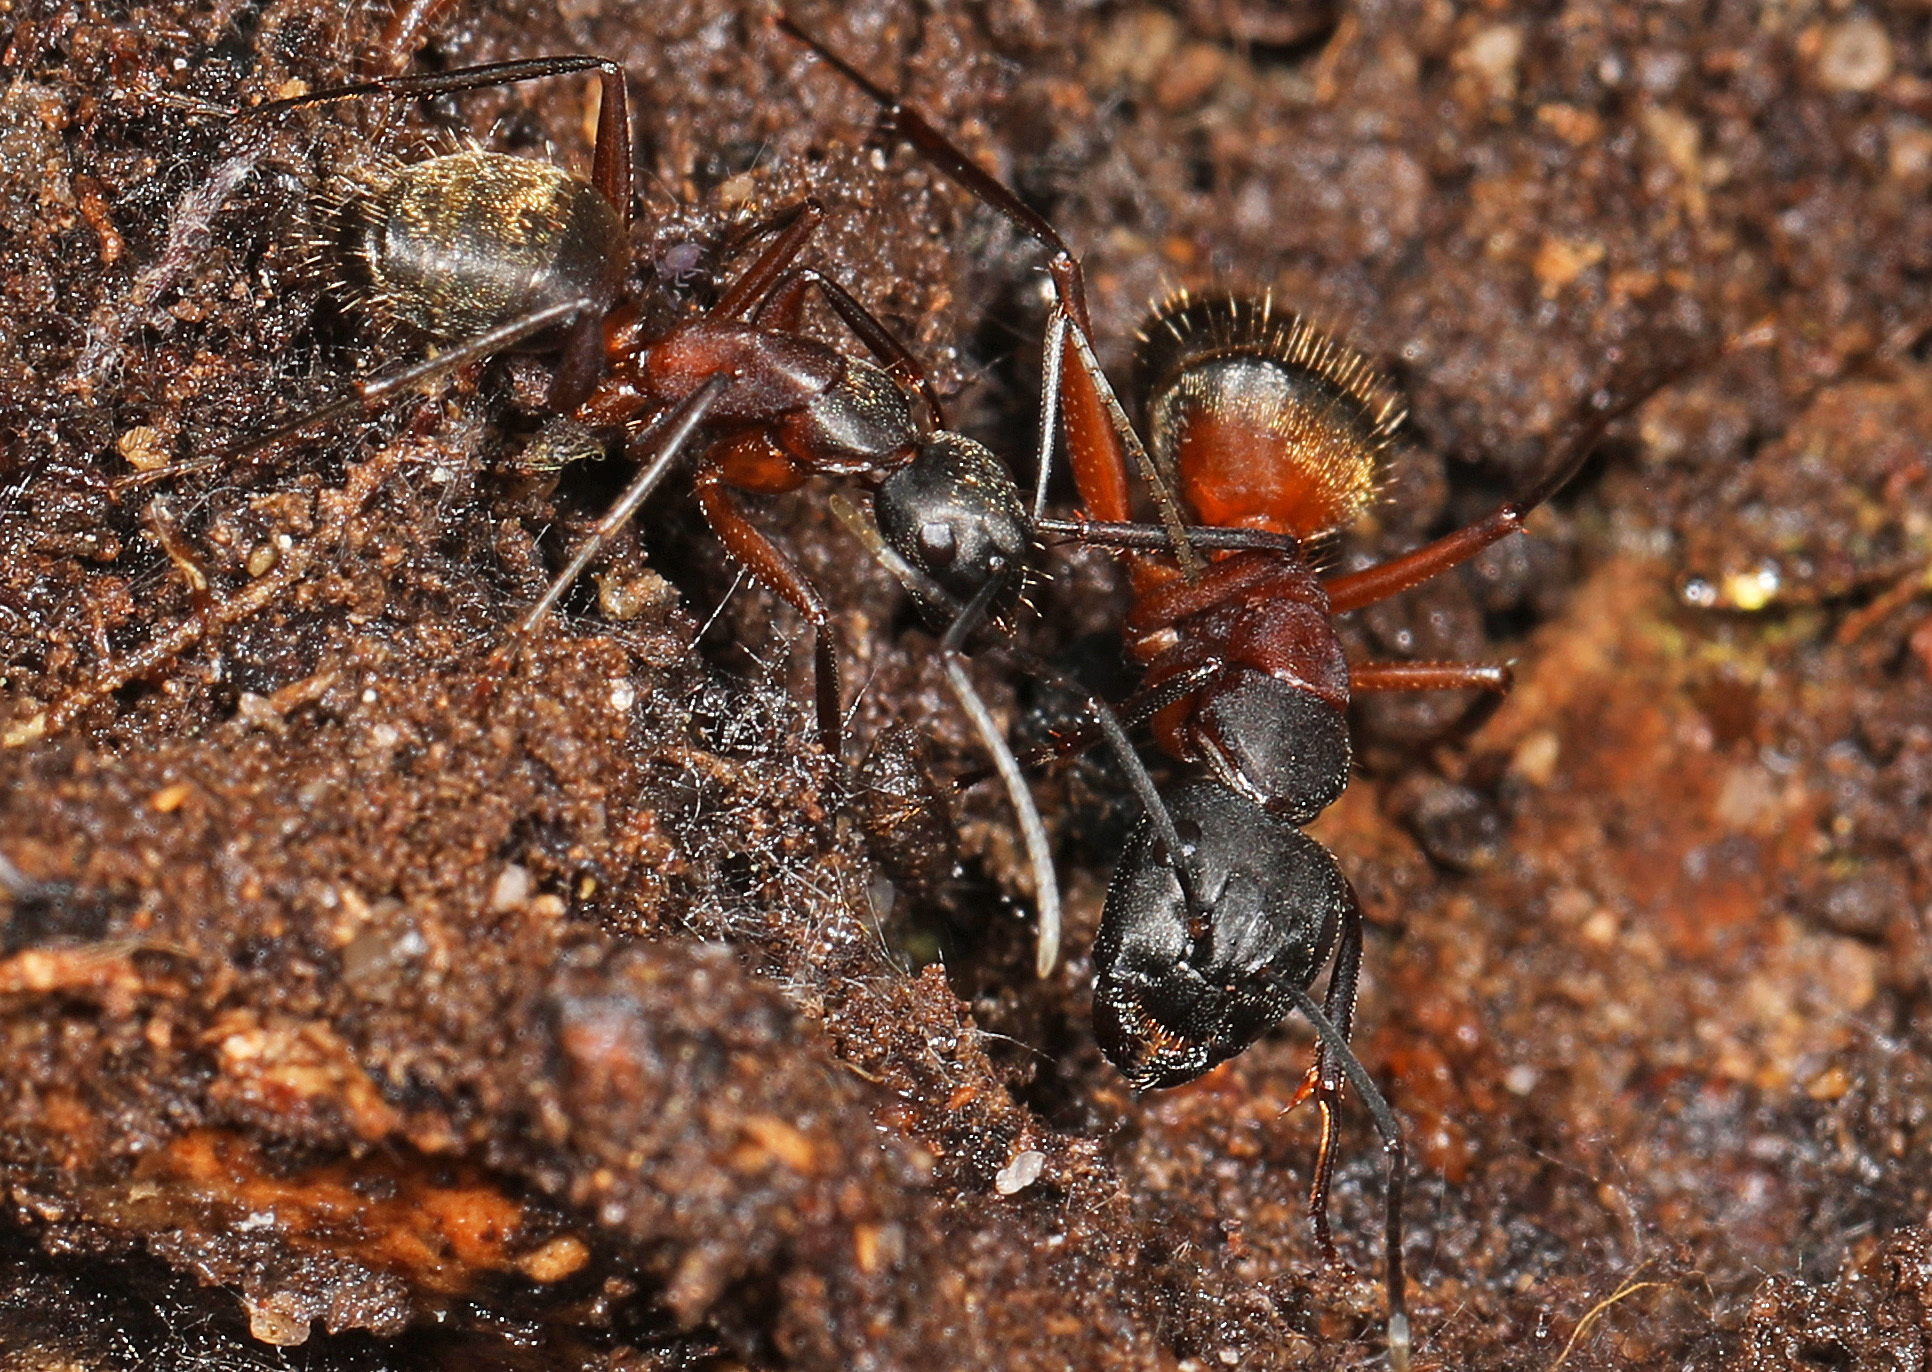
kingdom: Animalia
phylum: Arthropoda
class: Insecta
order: Hymenoptera
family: Formicidae
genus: Camponotus
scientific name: Camponotus chromaiodes
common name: Red carpenter ant
